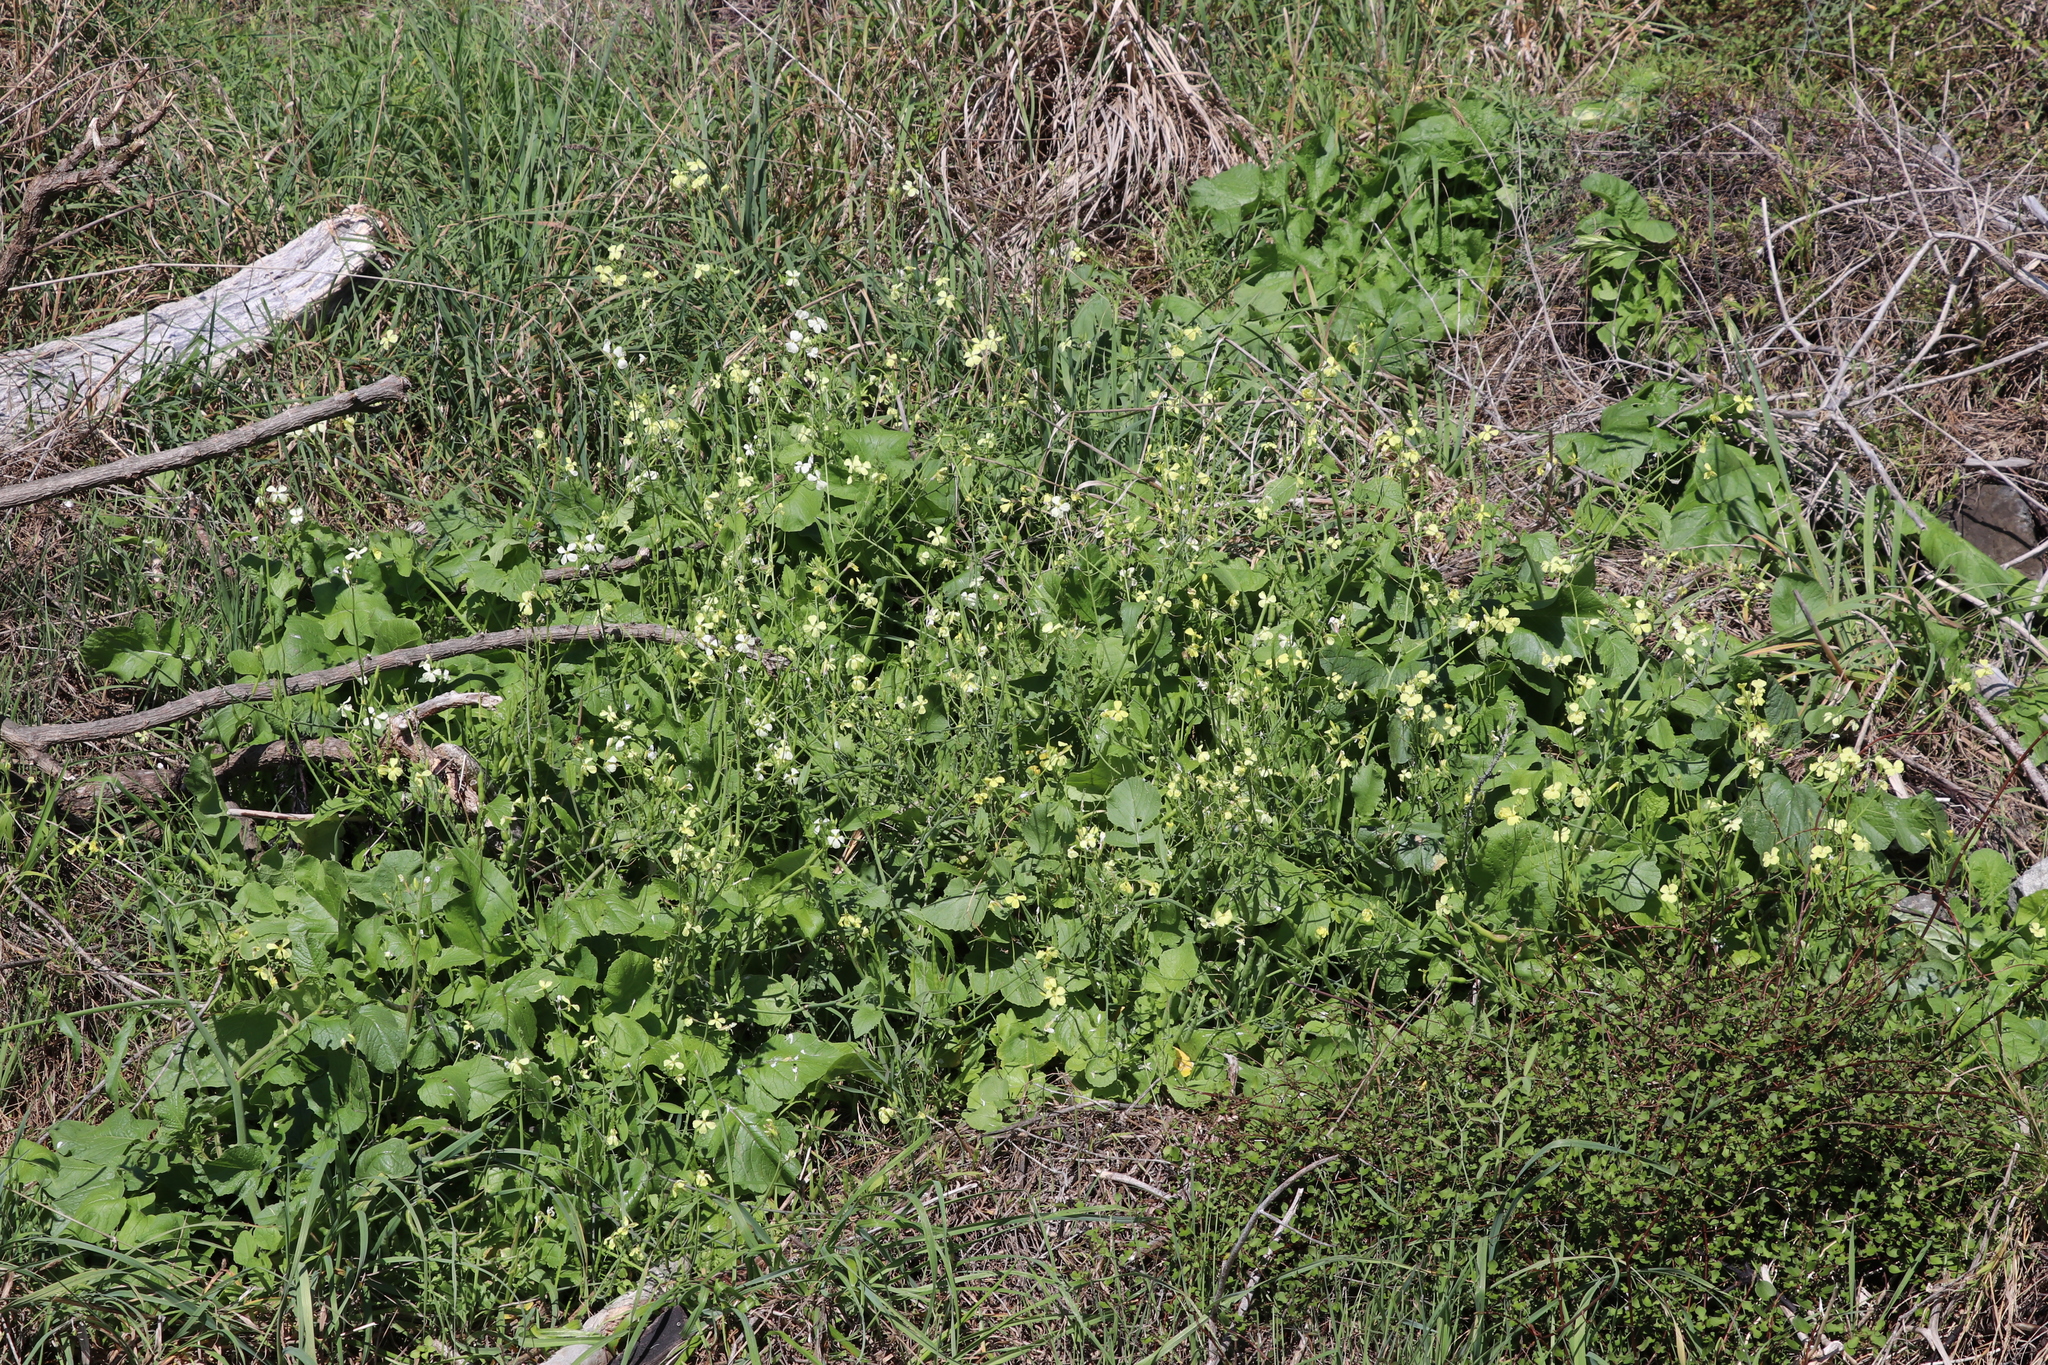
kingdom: Plantae
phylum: Tracheophyta
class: Magnoliopsida
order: Brassicales
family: Brassicaceae
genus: Raphanus
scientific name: Raphanus raphanistrum
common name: Wild radish
